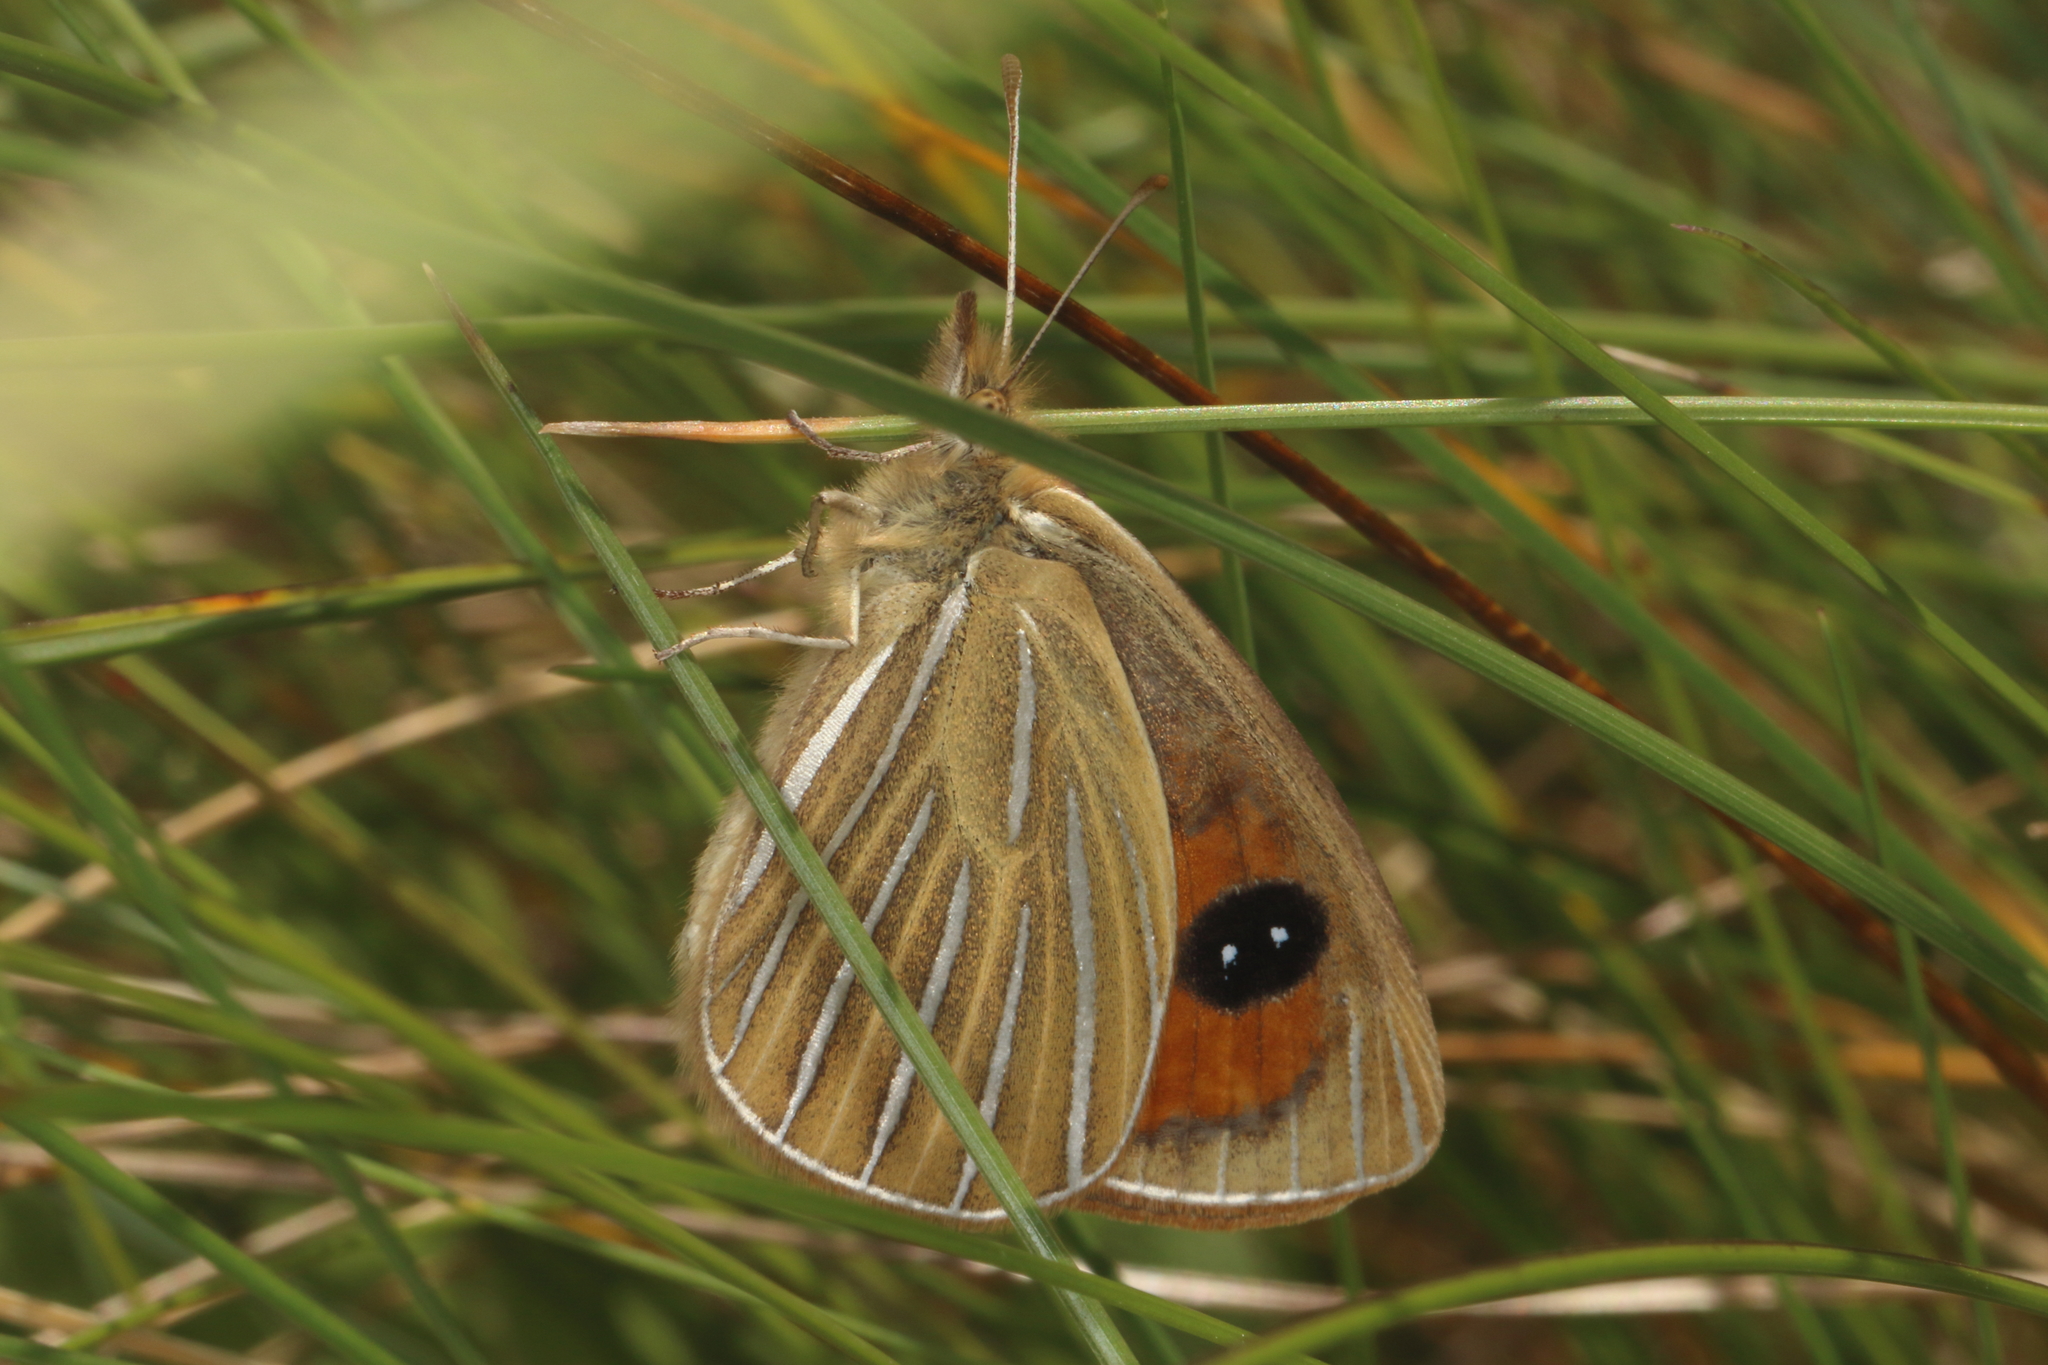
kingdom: Animalia
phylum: Arthropoda
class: Insecta
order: Lepidoptera
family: Nymphalidae
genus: Argyrophenga
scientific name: Argyrophenga antipodum
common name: Common tussock butterfly
